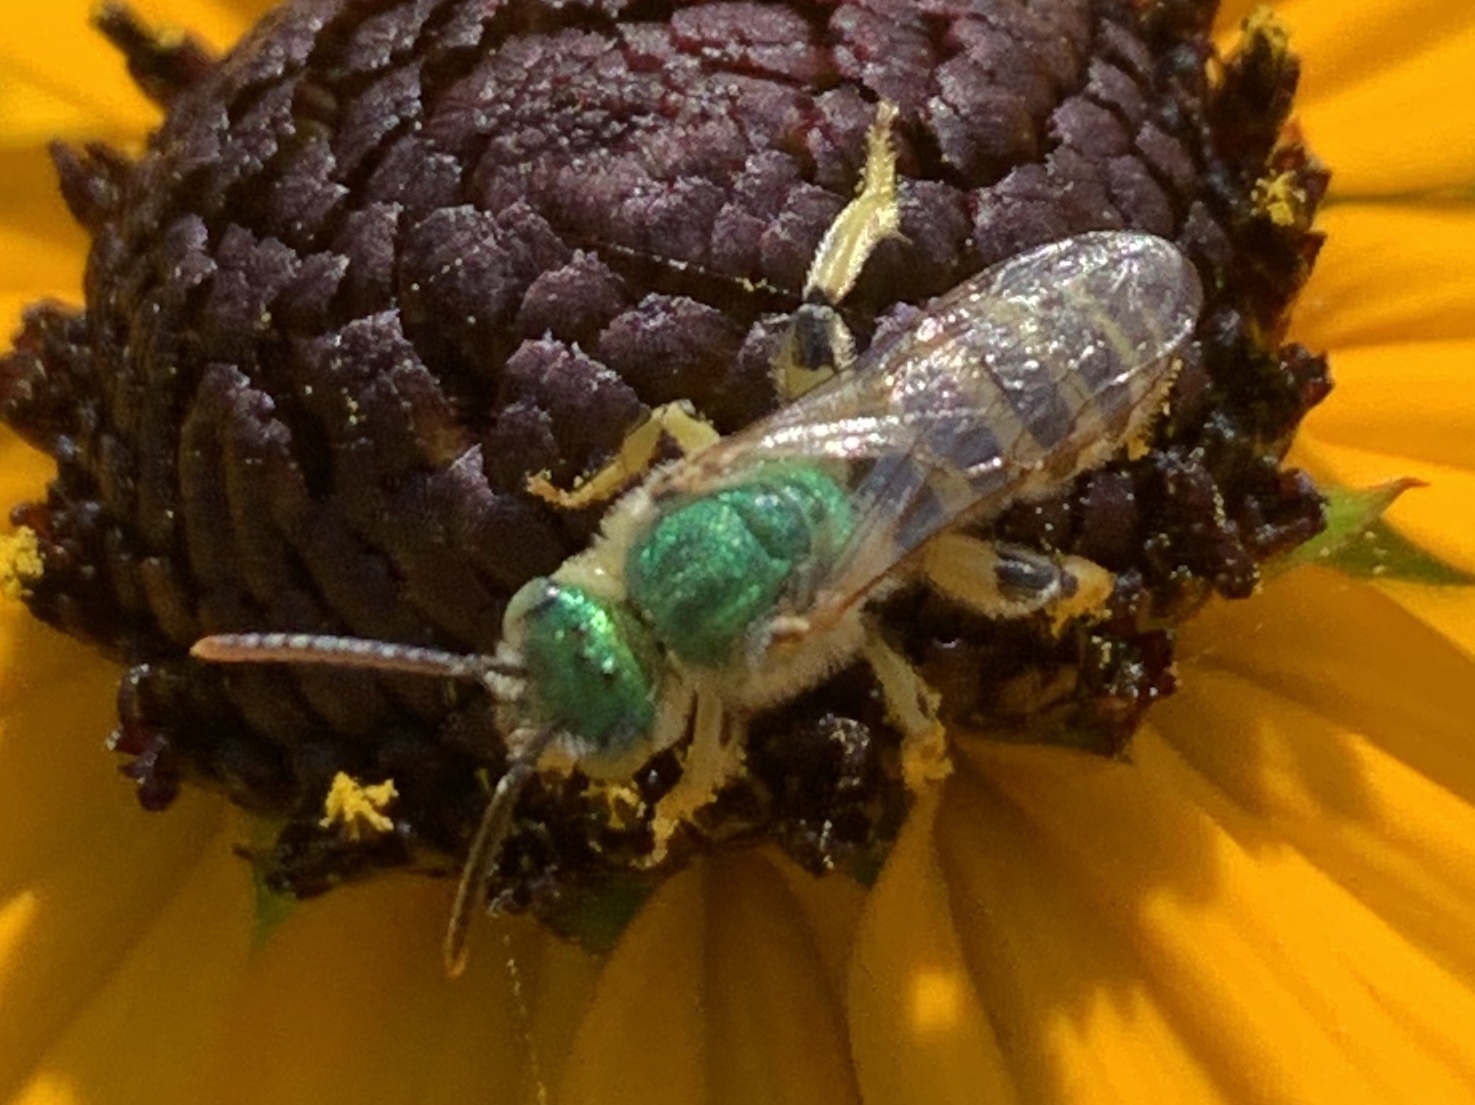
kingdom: Animalia
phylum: Arthropoda
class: Insecta
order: Hymenoptera
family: Halictidae
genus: Agapostemon
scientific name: Agapostemon texanus
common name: Texas striped sweat bee
